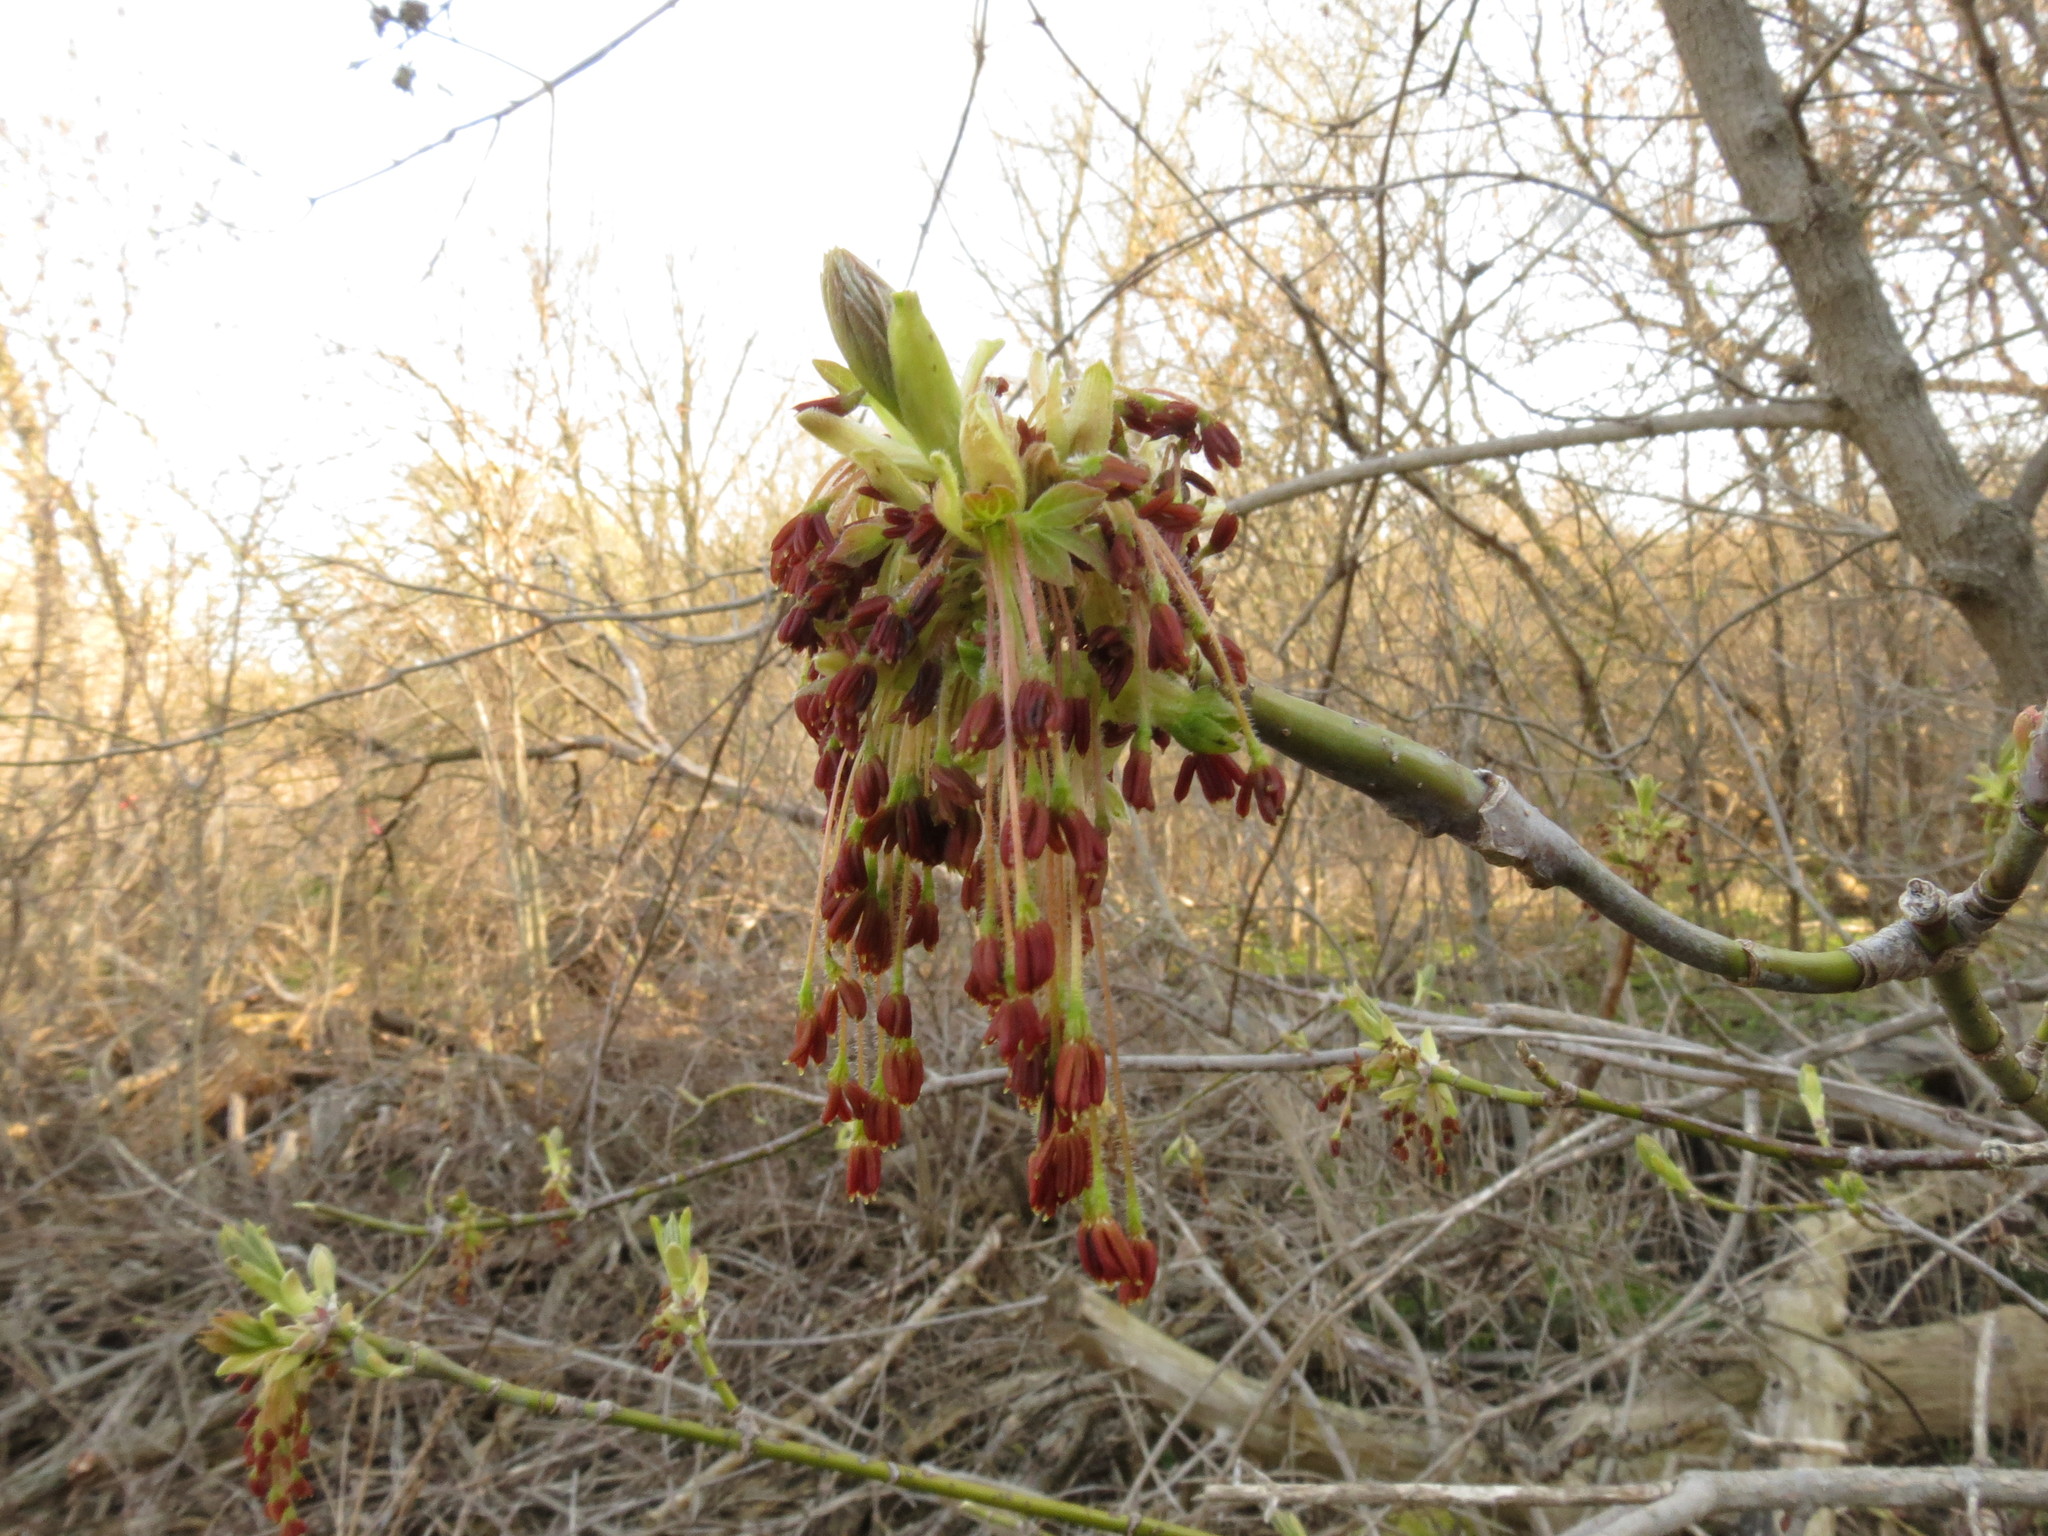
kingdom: Plantae
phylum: Tracheophyta
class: Magnoliopsida
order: Sapindales
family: Sapindaceae
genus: Acer
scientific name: Acer negundo
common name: Ashleaf maple
